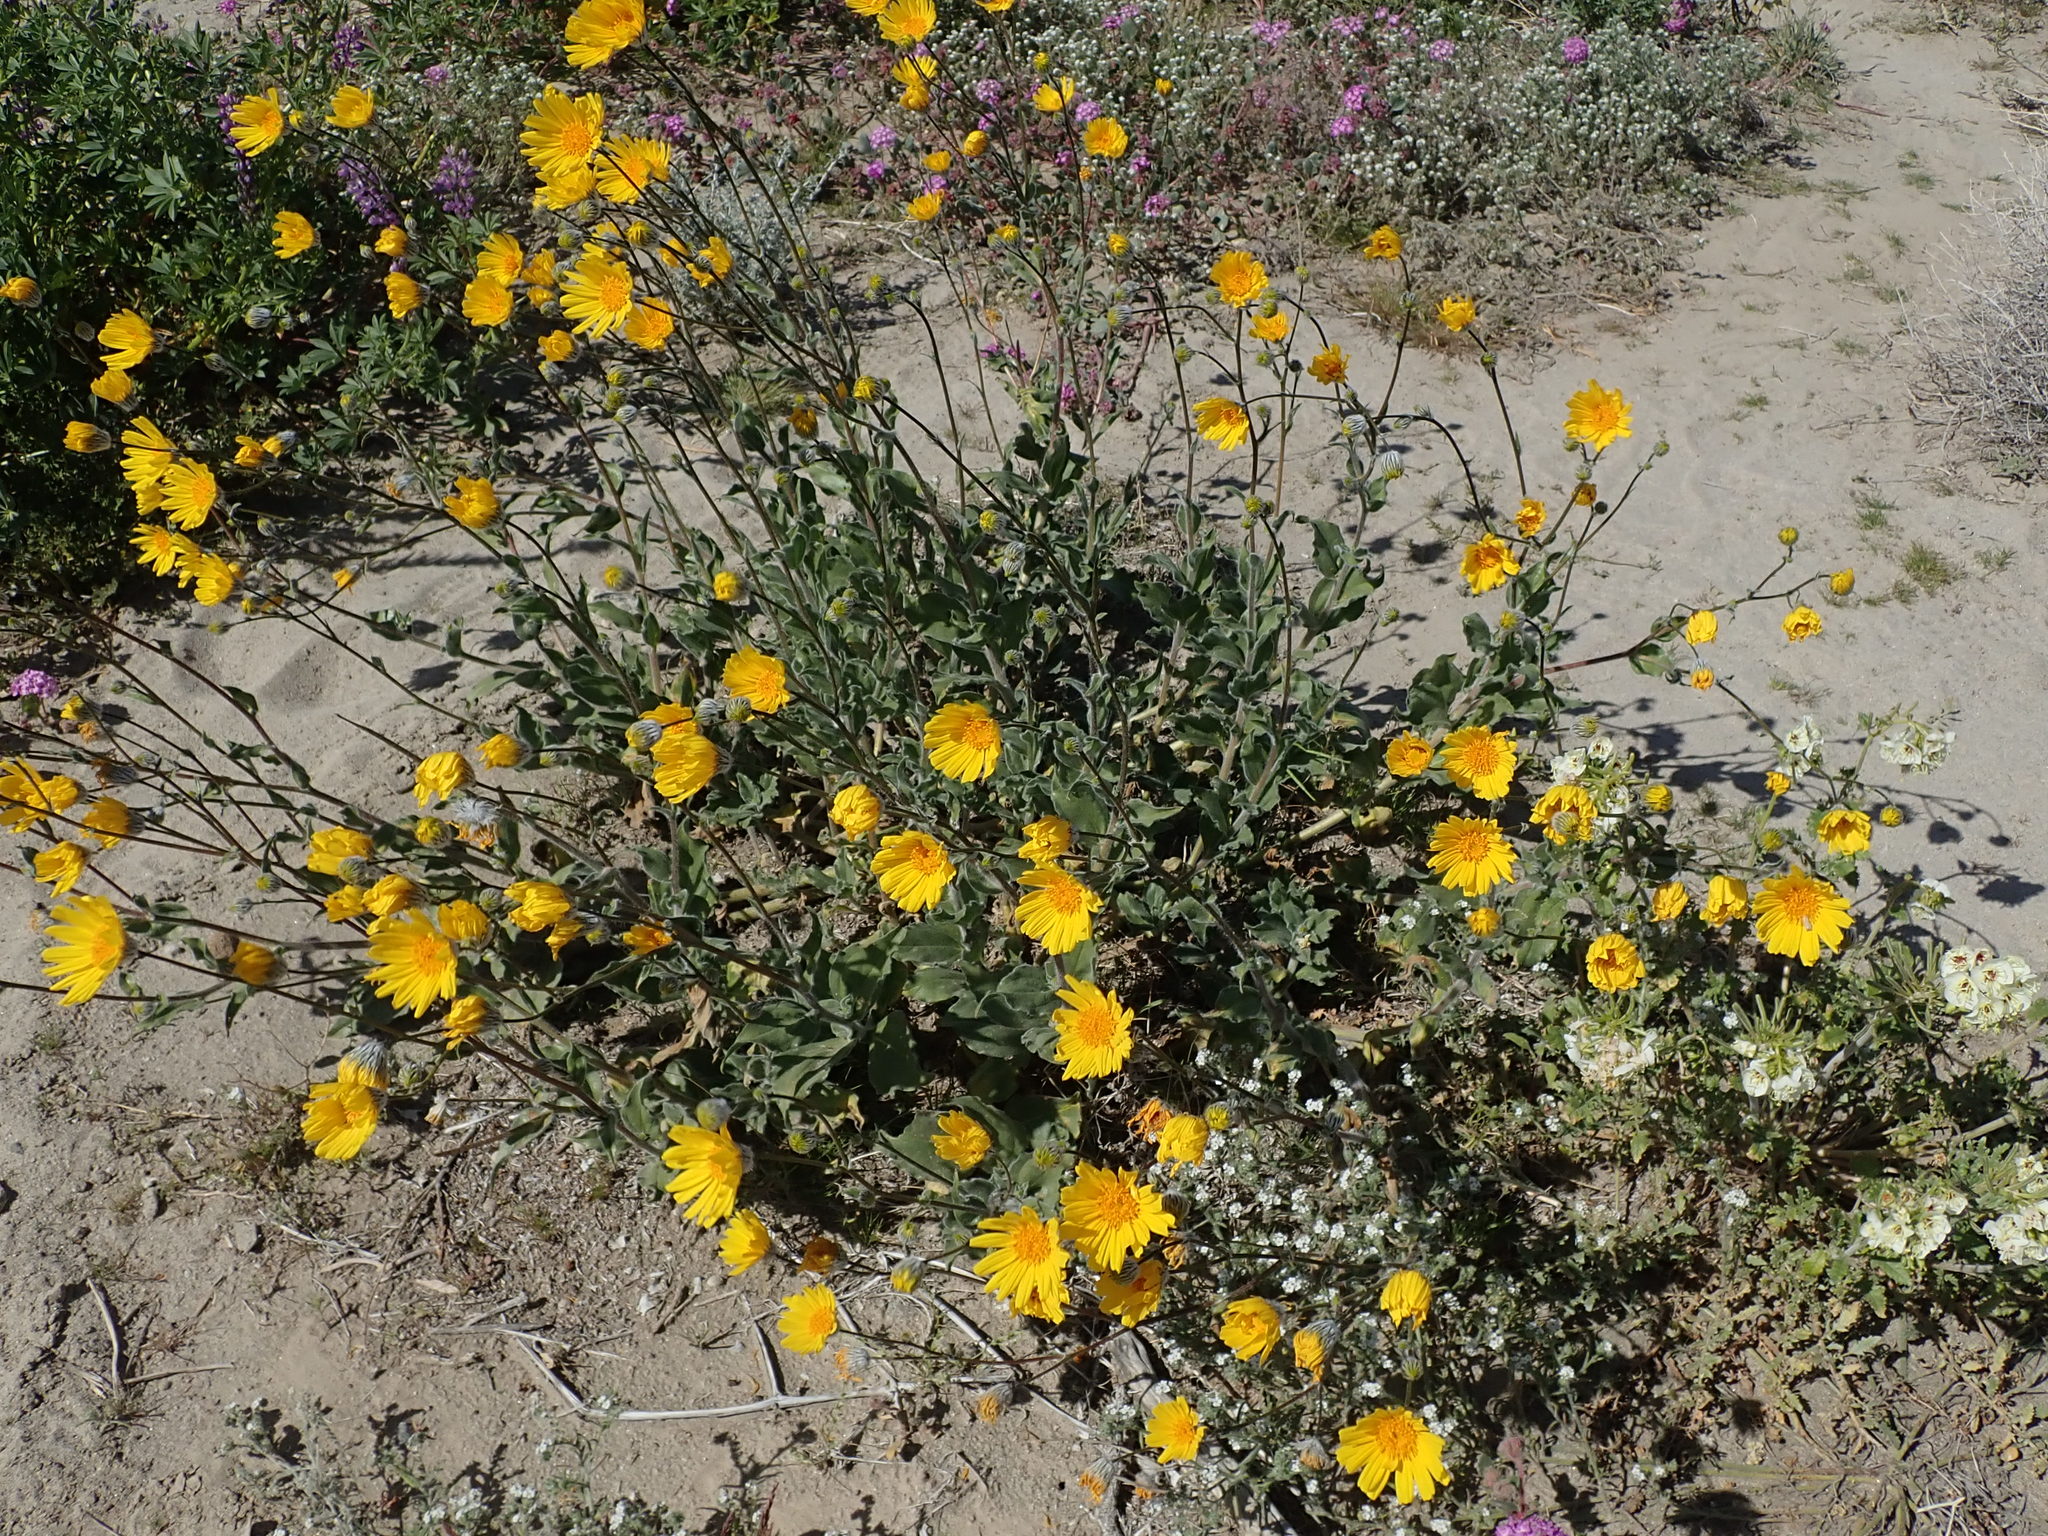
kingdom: Plantae
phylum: Tracheophyta
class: Magnoliopsida
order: Asterales
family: Asteraceae
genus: Geraea
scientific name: Geraea canescens
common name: Desert-gold
